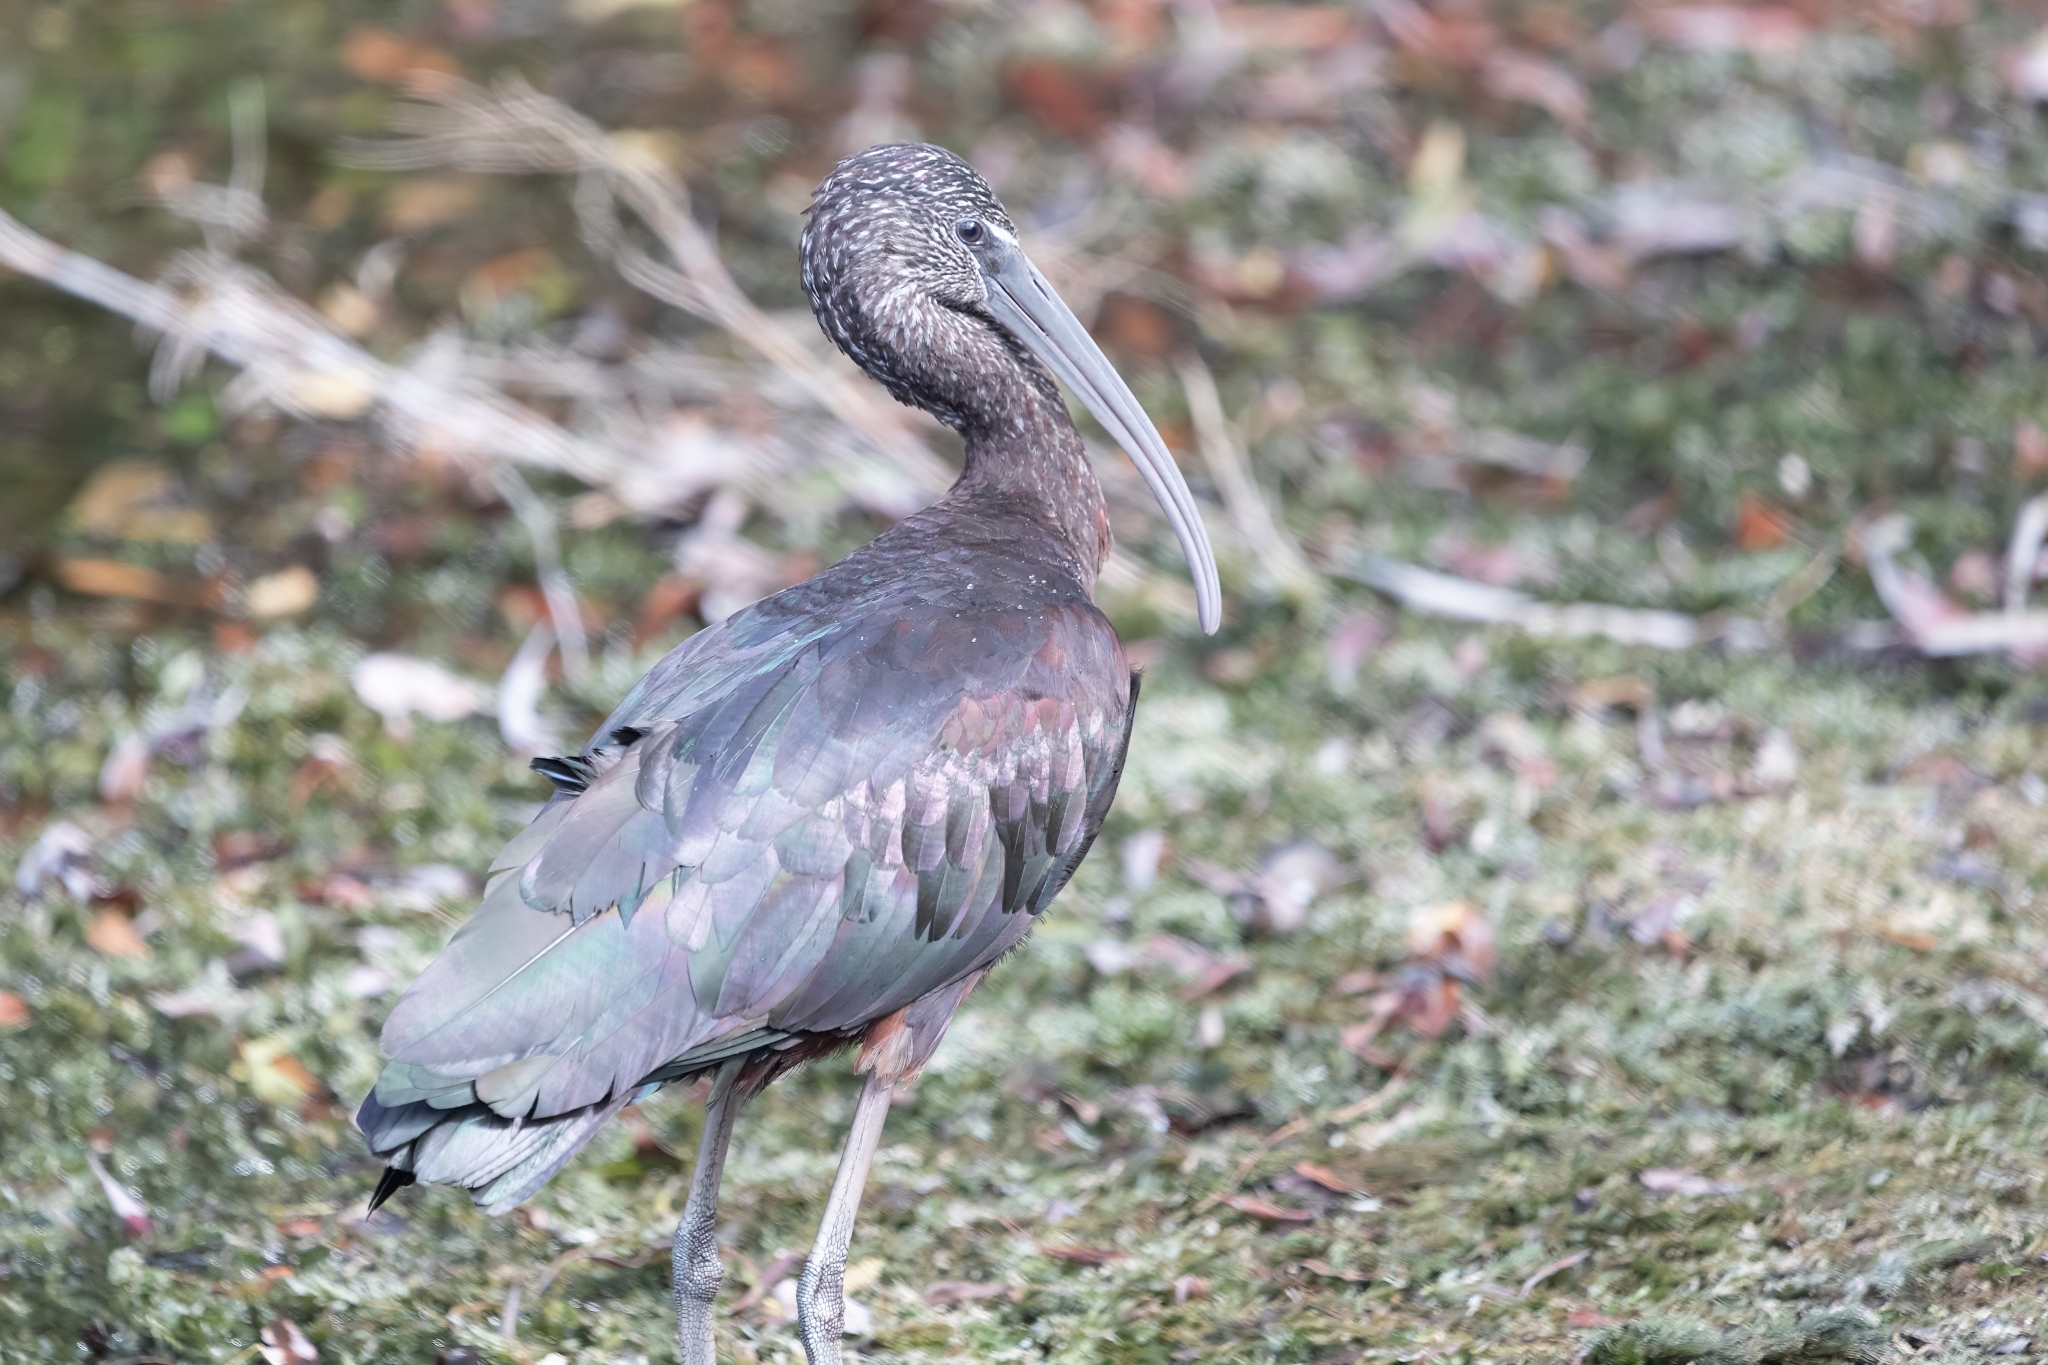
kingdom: Animalia
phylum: Chordata
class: Aves
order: Pelecaniformes
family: Threskiornithidae
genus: Plegadis
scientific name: Plegadis falcinellus
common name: Glossy ibis
